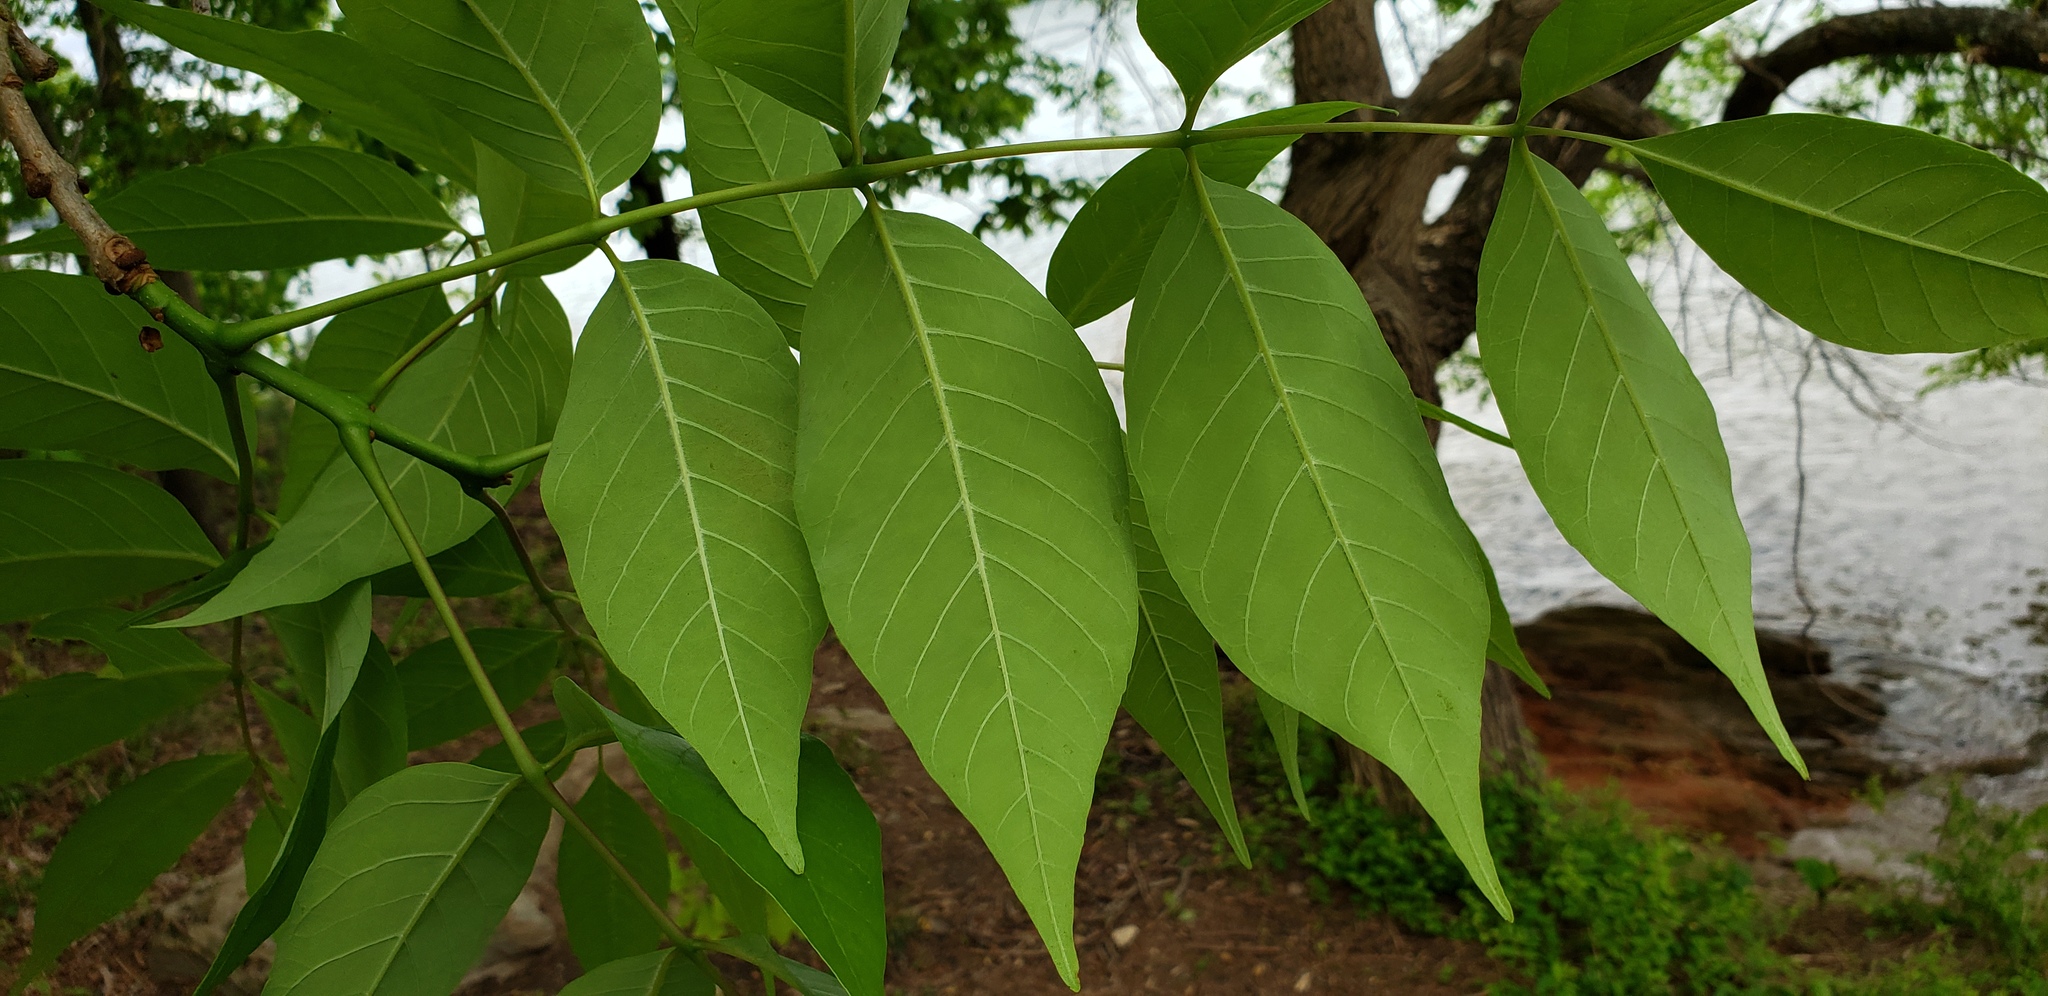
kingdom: Plantae
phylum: Tracheophyta
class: Magnoliopsida
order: Lamiales
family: Oleaceae
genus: Fraxinus
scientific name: Fraxinus pennsylvanica
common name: Green ash
